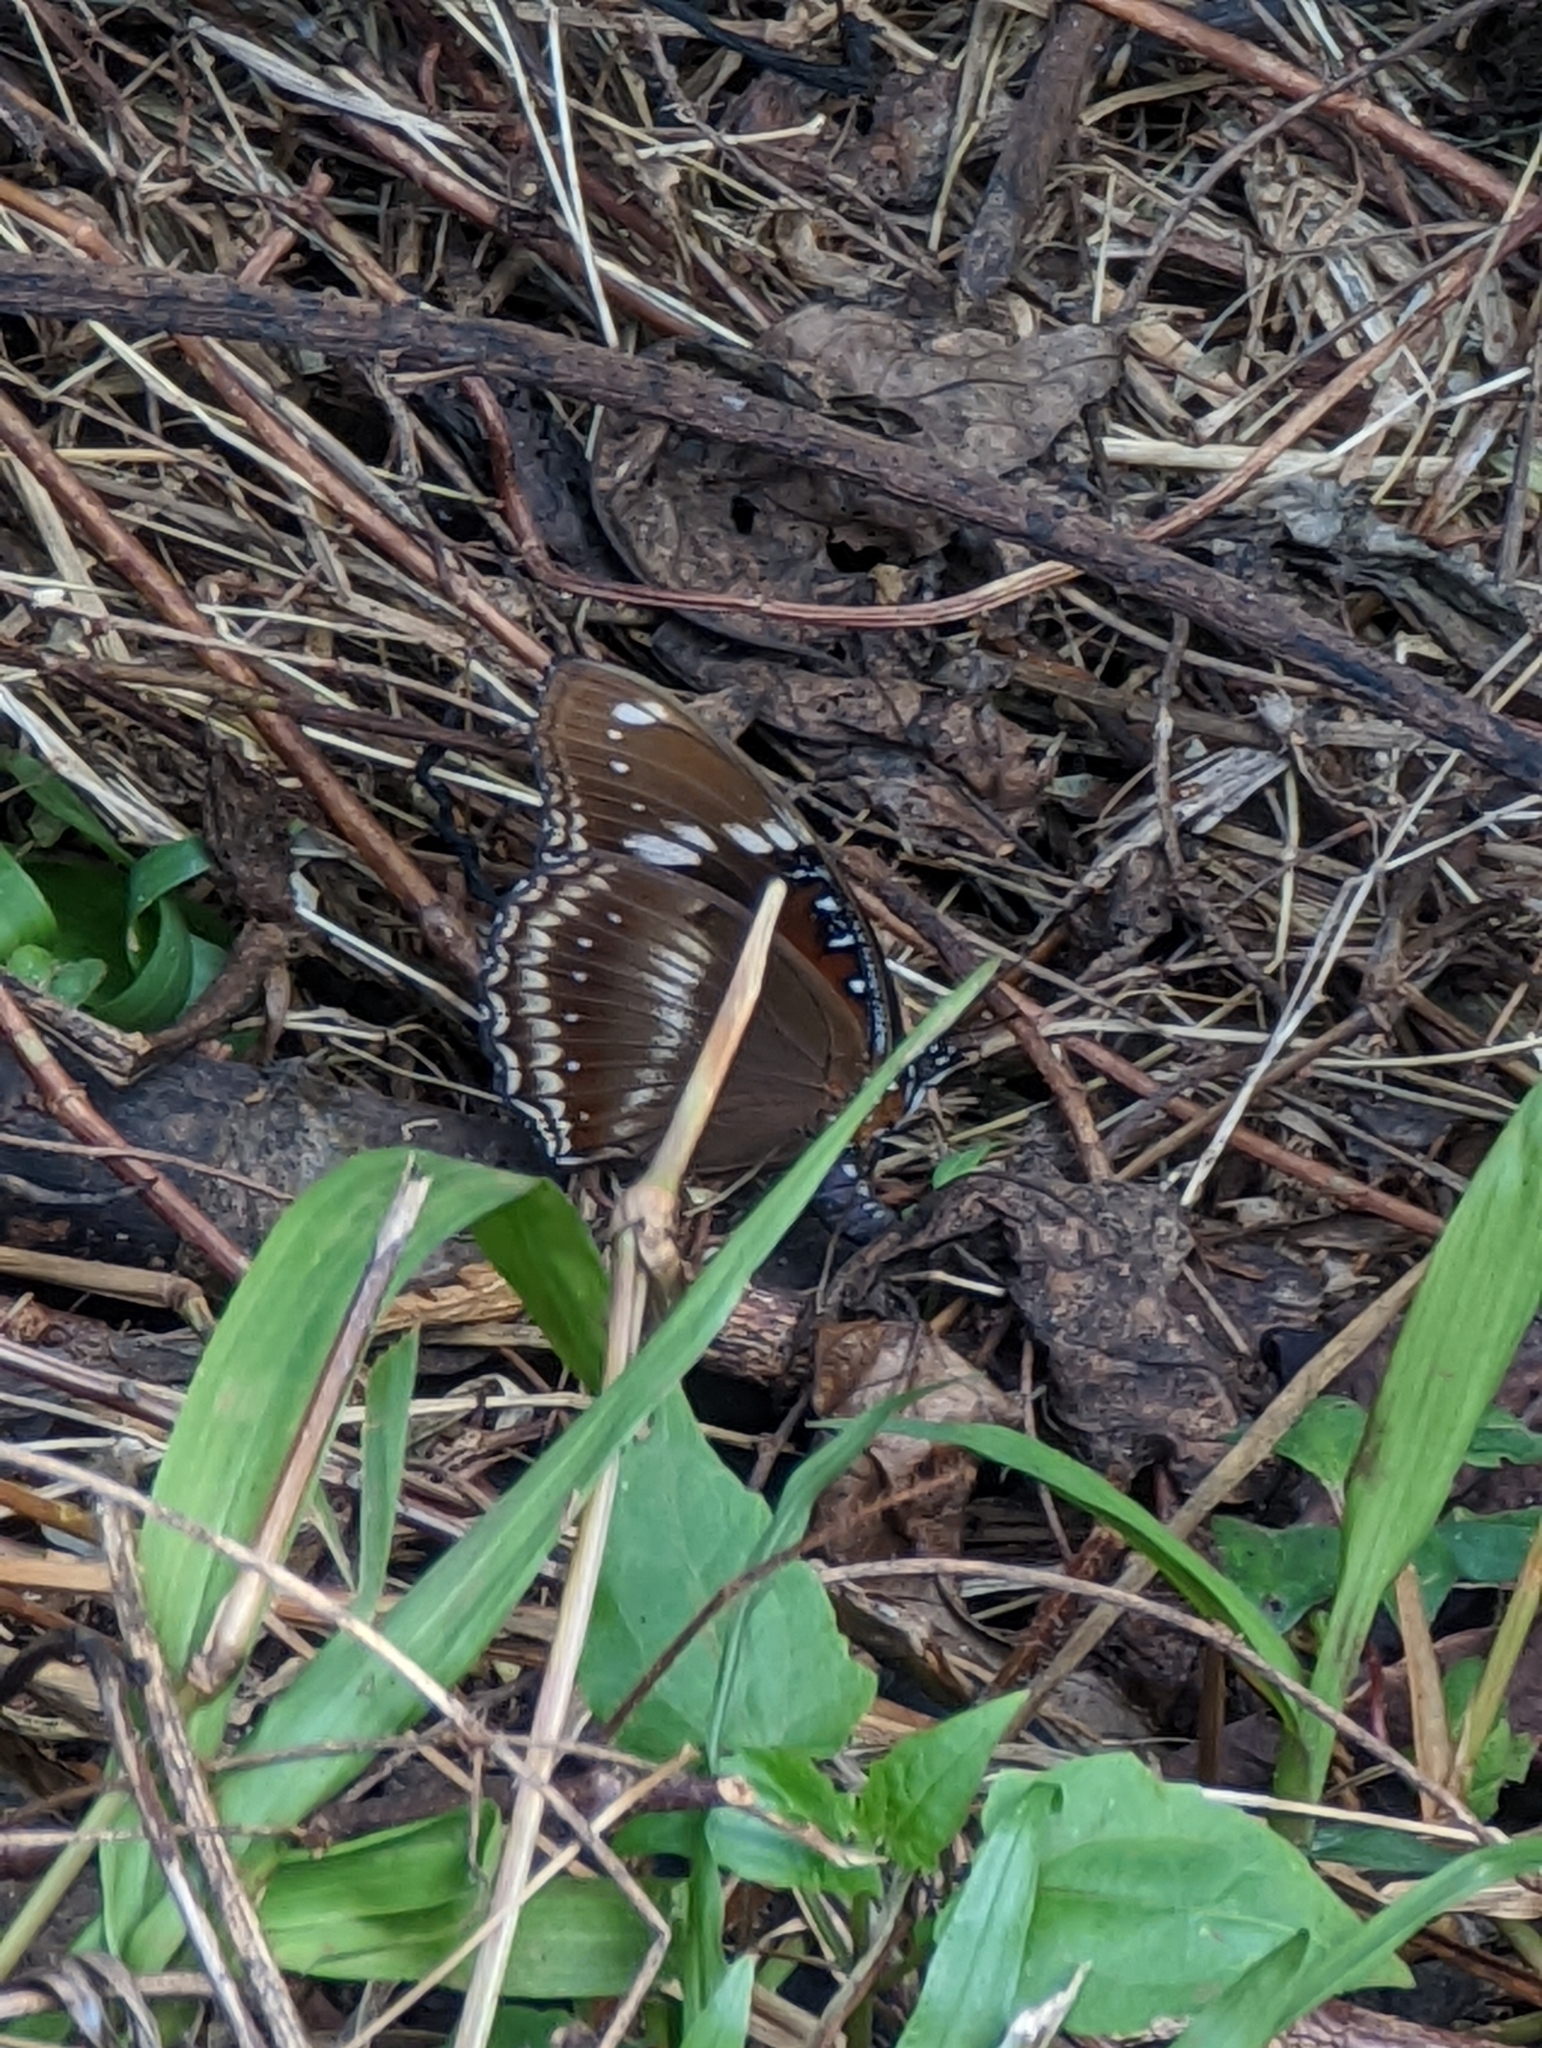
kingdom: Animalia
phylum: Arthropoda
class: Insecta
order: Lepidoptera
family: Nymphalidae
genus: Hypolimnas
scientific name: Hypolimnas bolina
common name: Great eggfly
